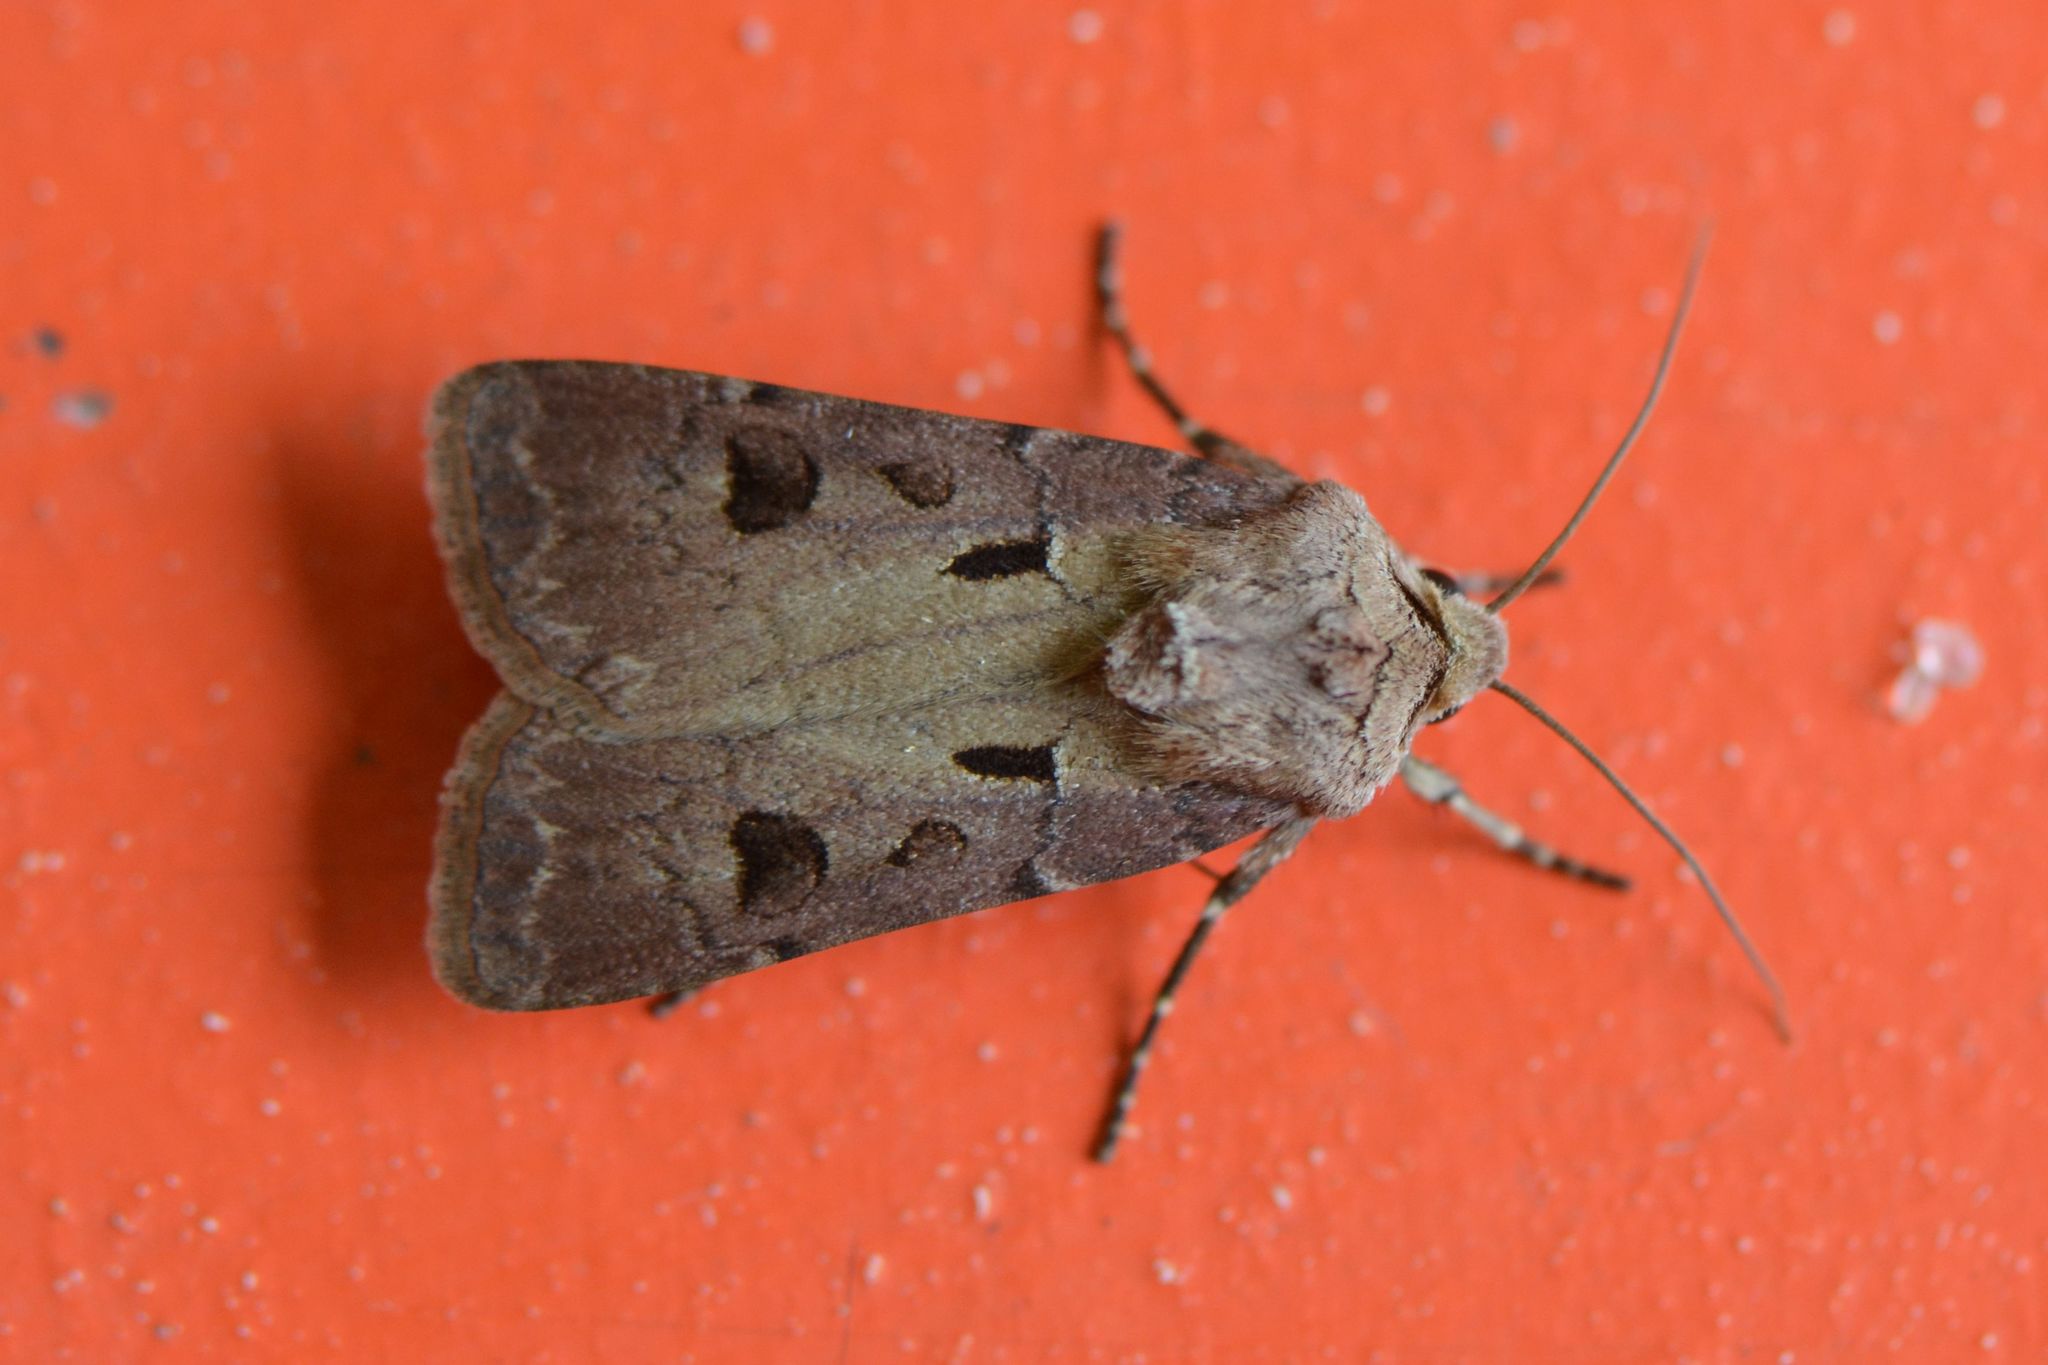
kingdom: Animalia
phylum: Arthropoda
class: Insecta
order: Lepidoptera
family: Noctuidae
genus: Agrotis
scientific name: Agrotis exclamationis
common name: Heart and dart
